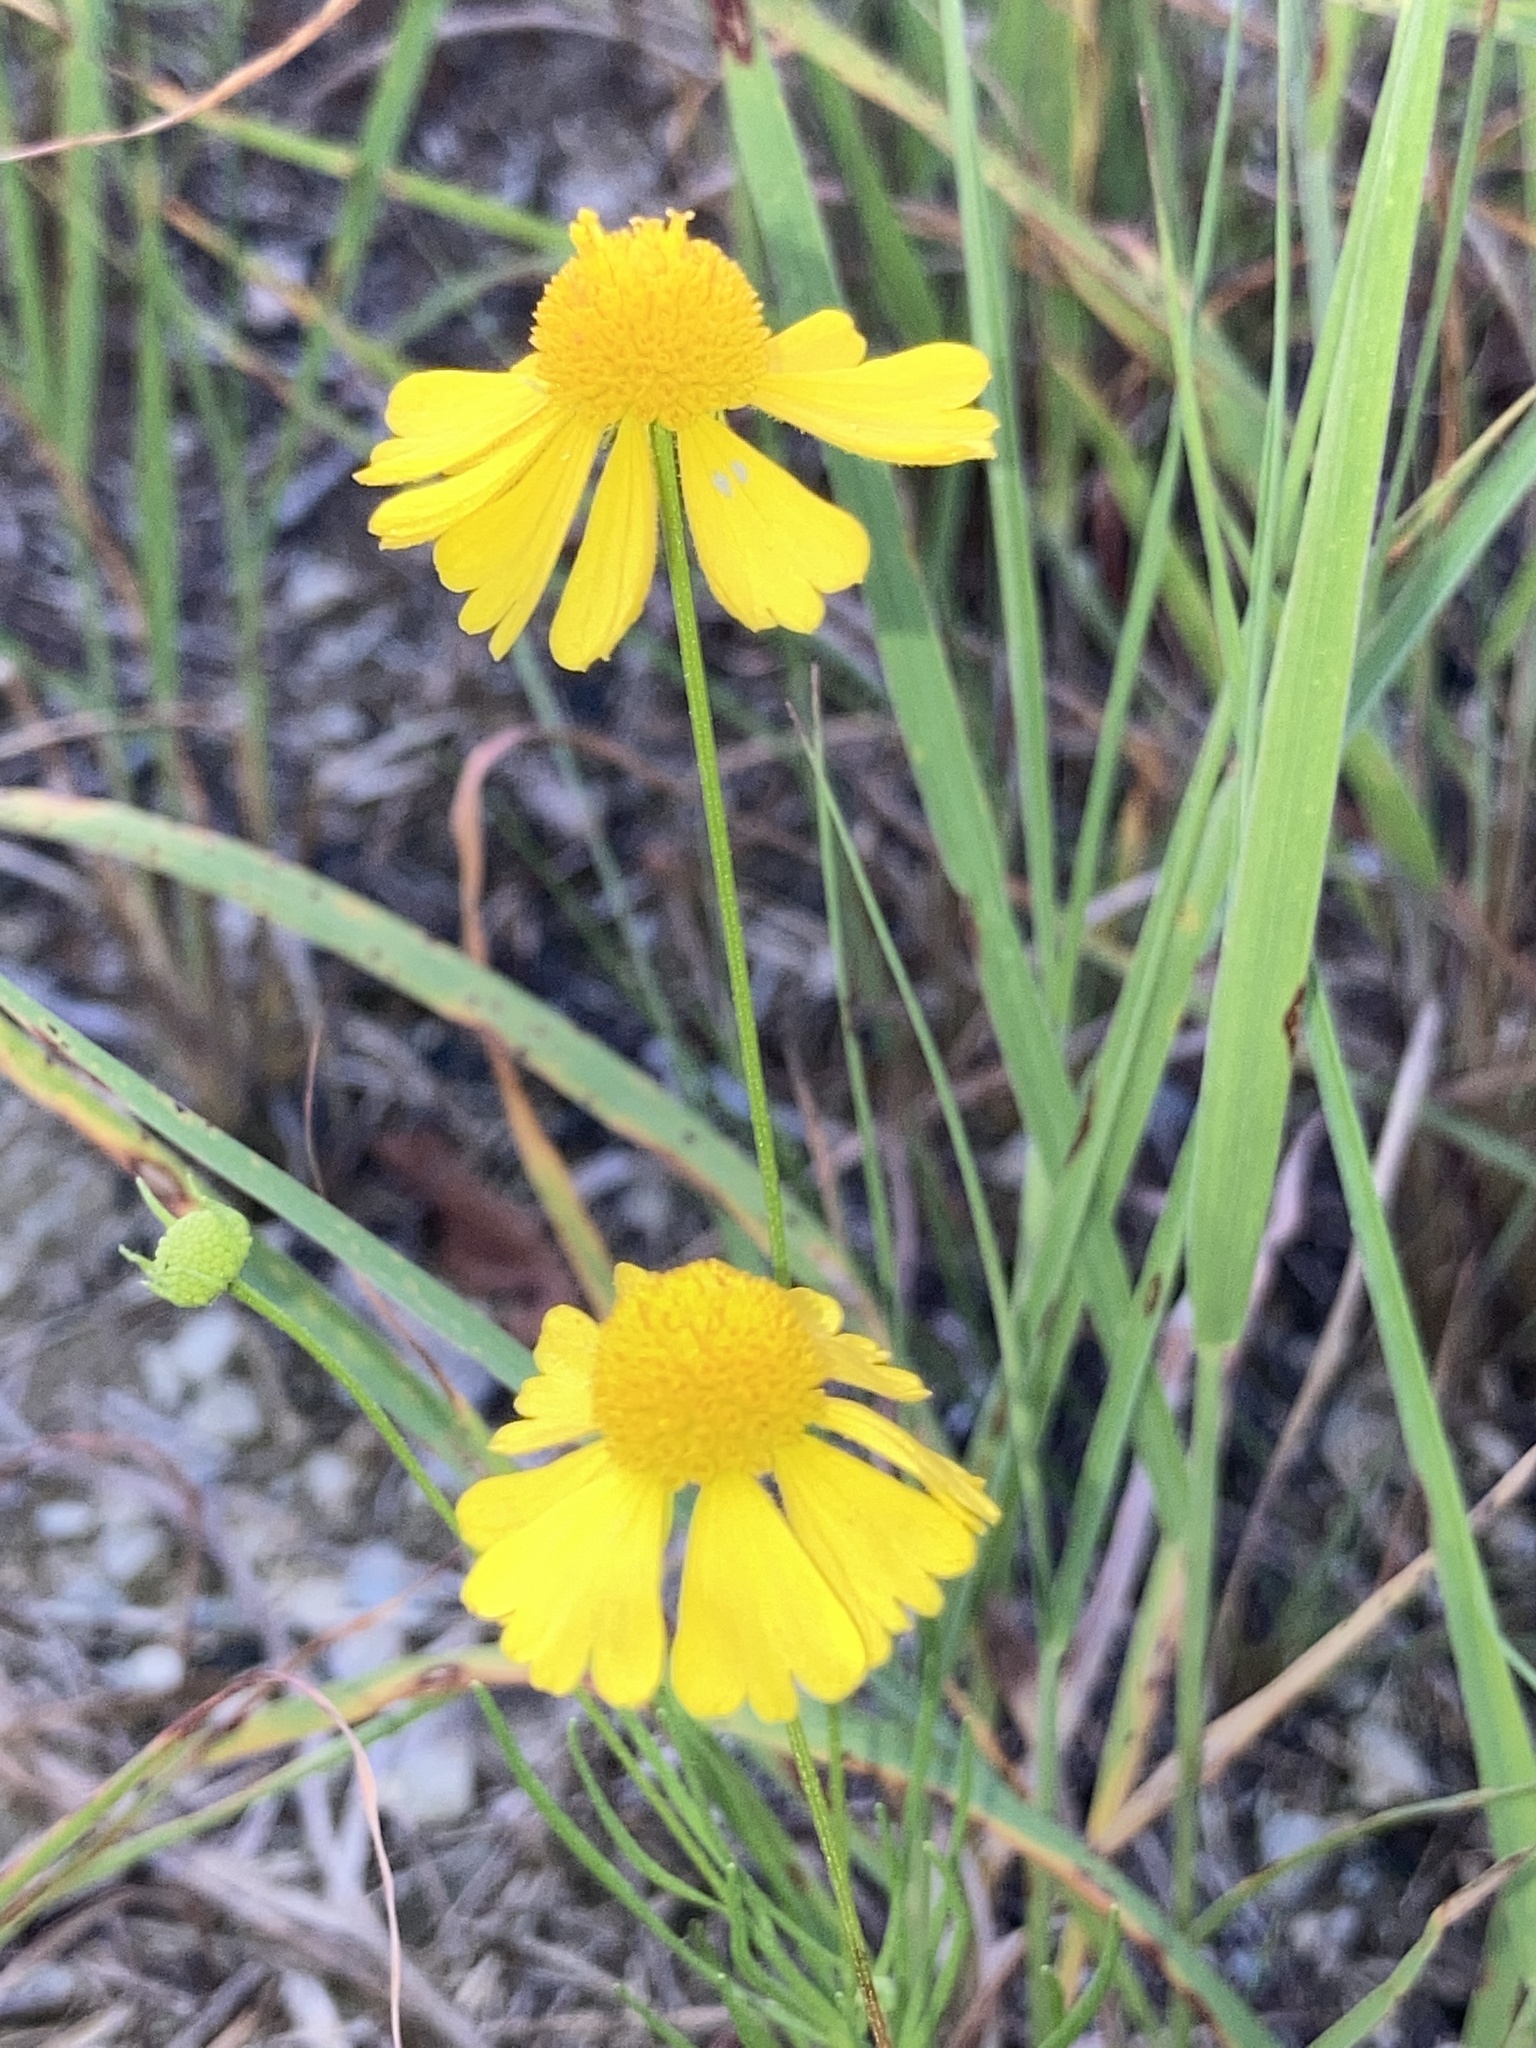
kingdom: Plantae
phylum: Tracheophyta
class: Magnoliopsida
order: Asterales
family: Asteraceae
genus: Helenium
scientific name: Helenium amarum
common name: Bitter sneezeweed
